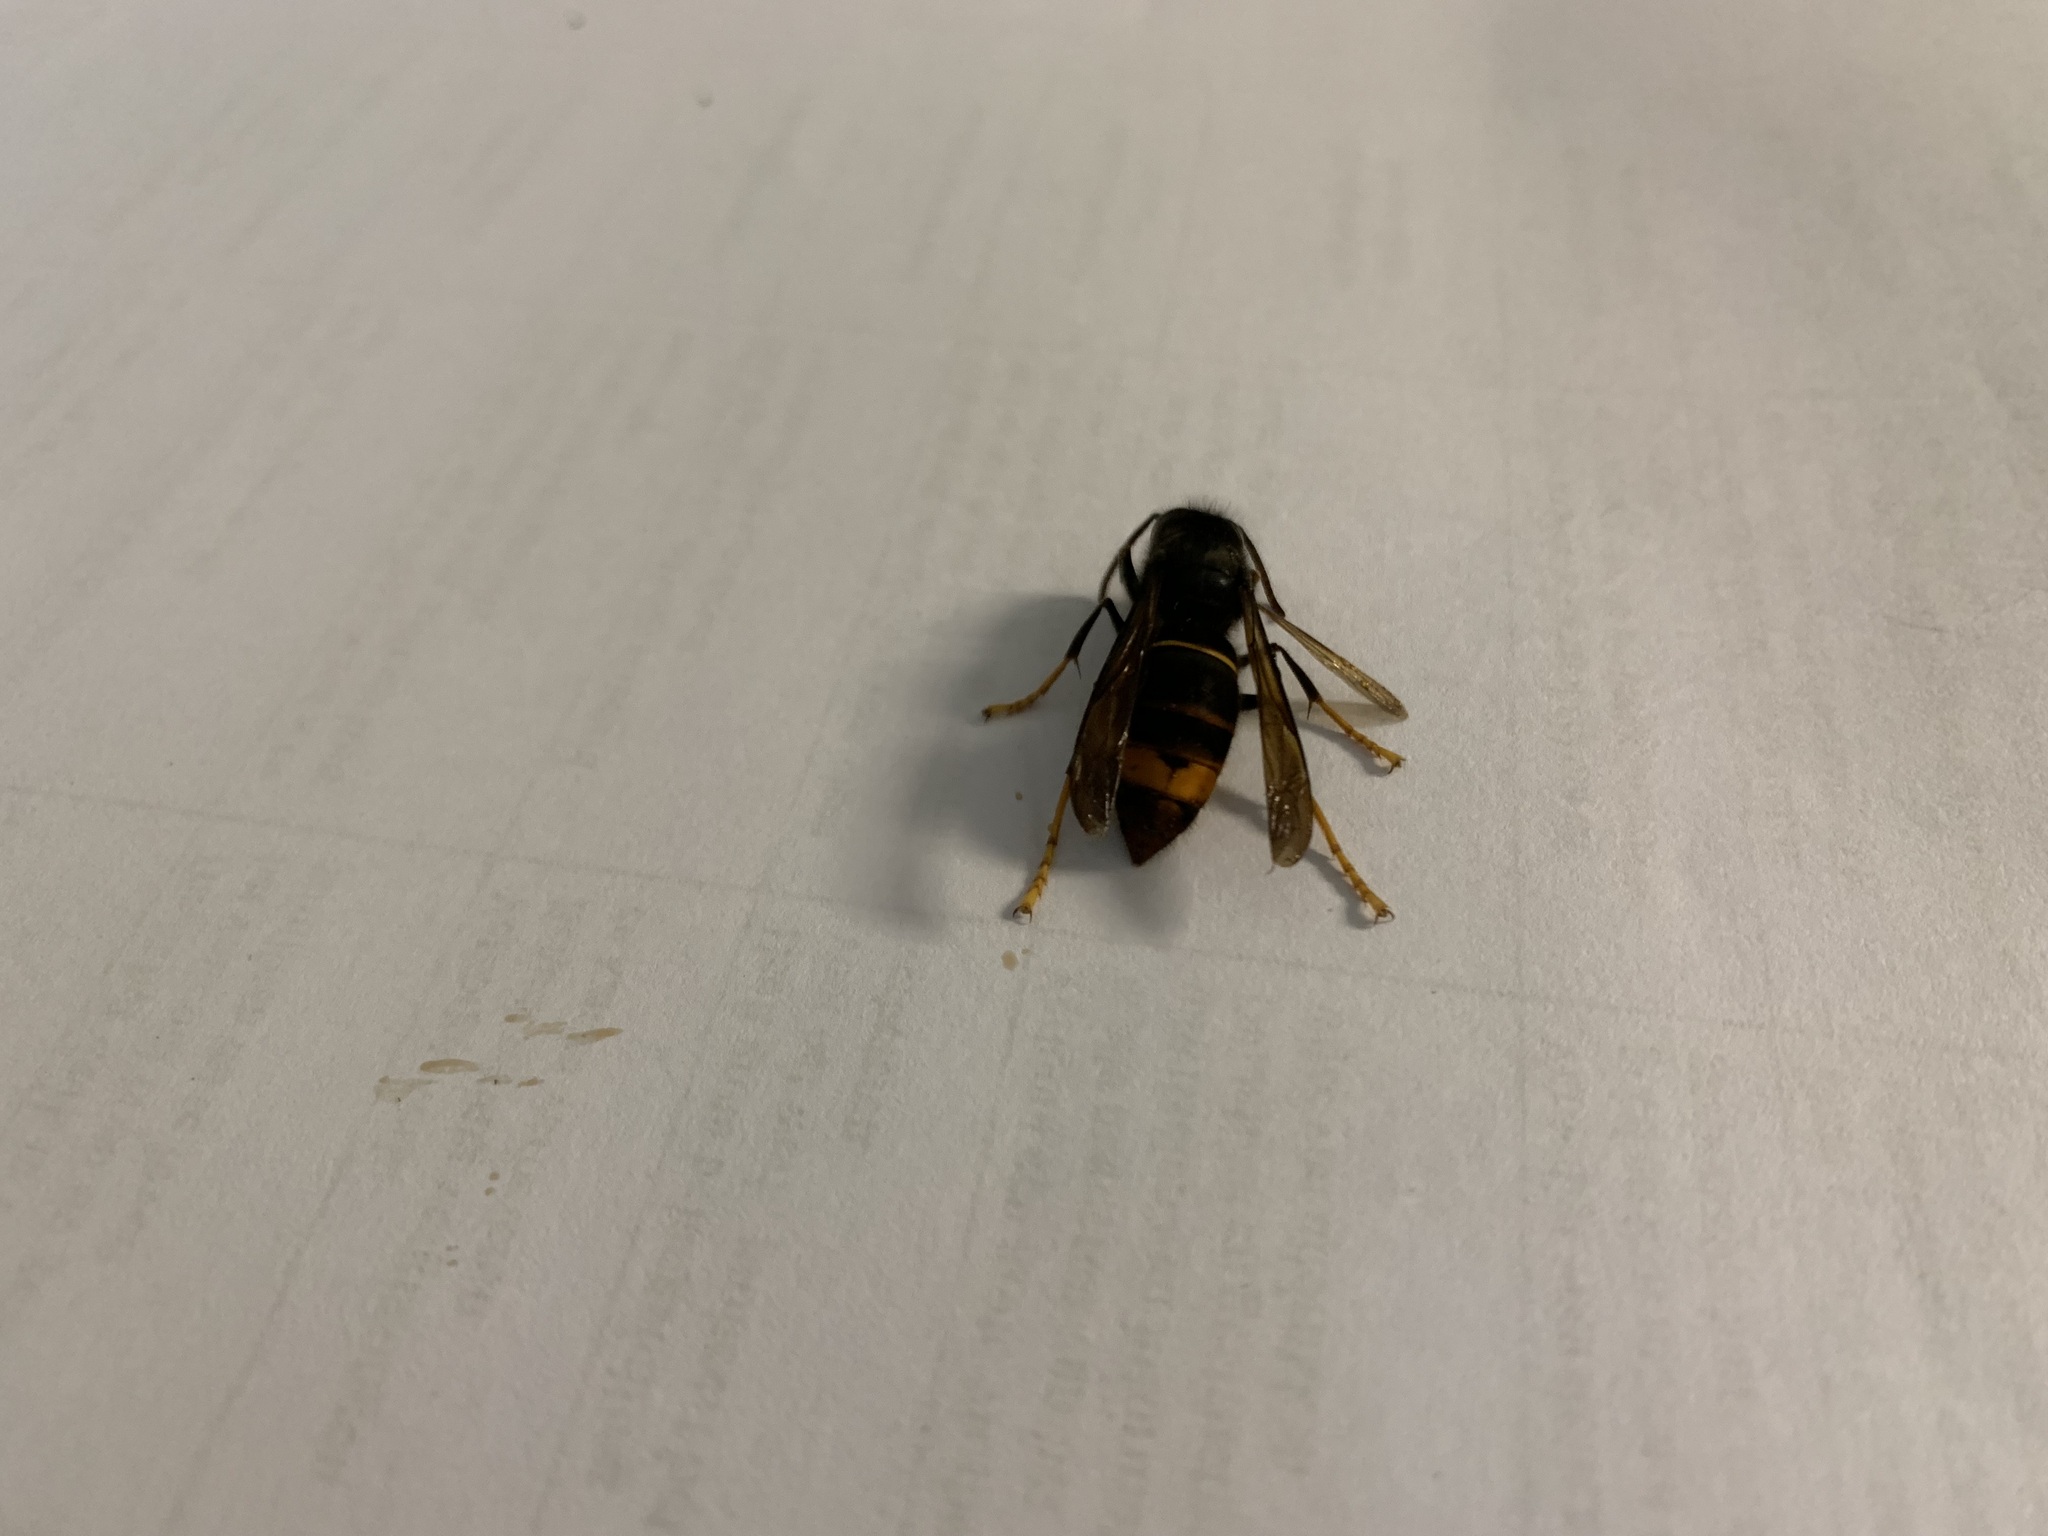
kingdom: Animalia
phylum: Arthropoda
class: Insecta
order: Hymenoptera
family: Vespidae
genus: Vespa
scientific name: Vespa velutina
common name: Asian hornet
